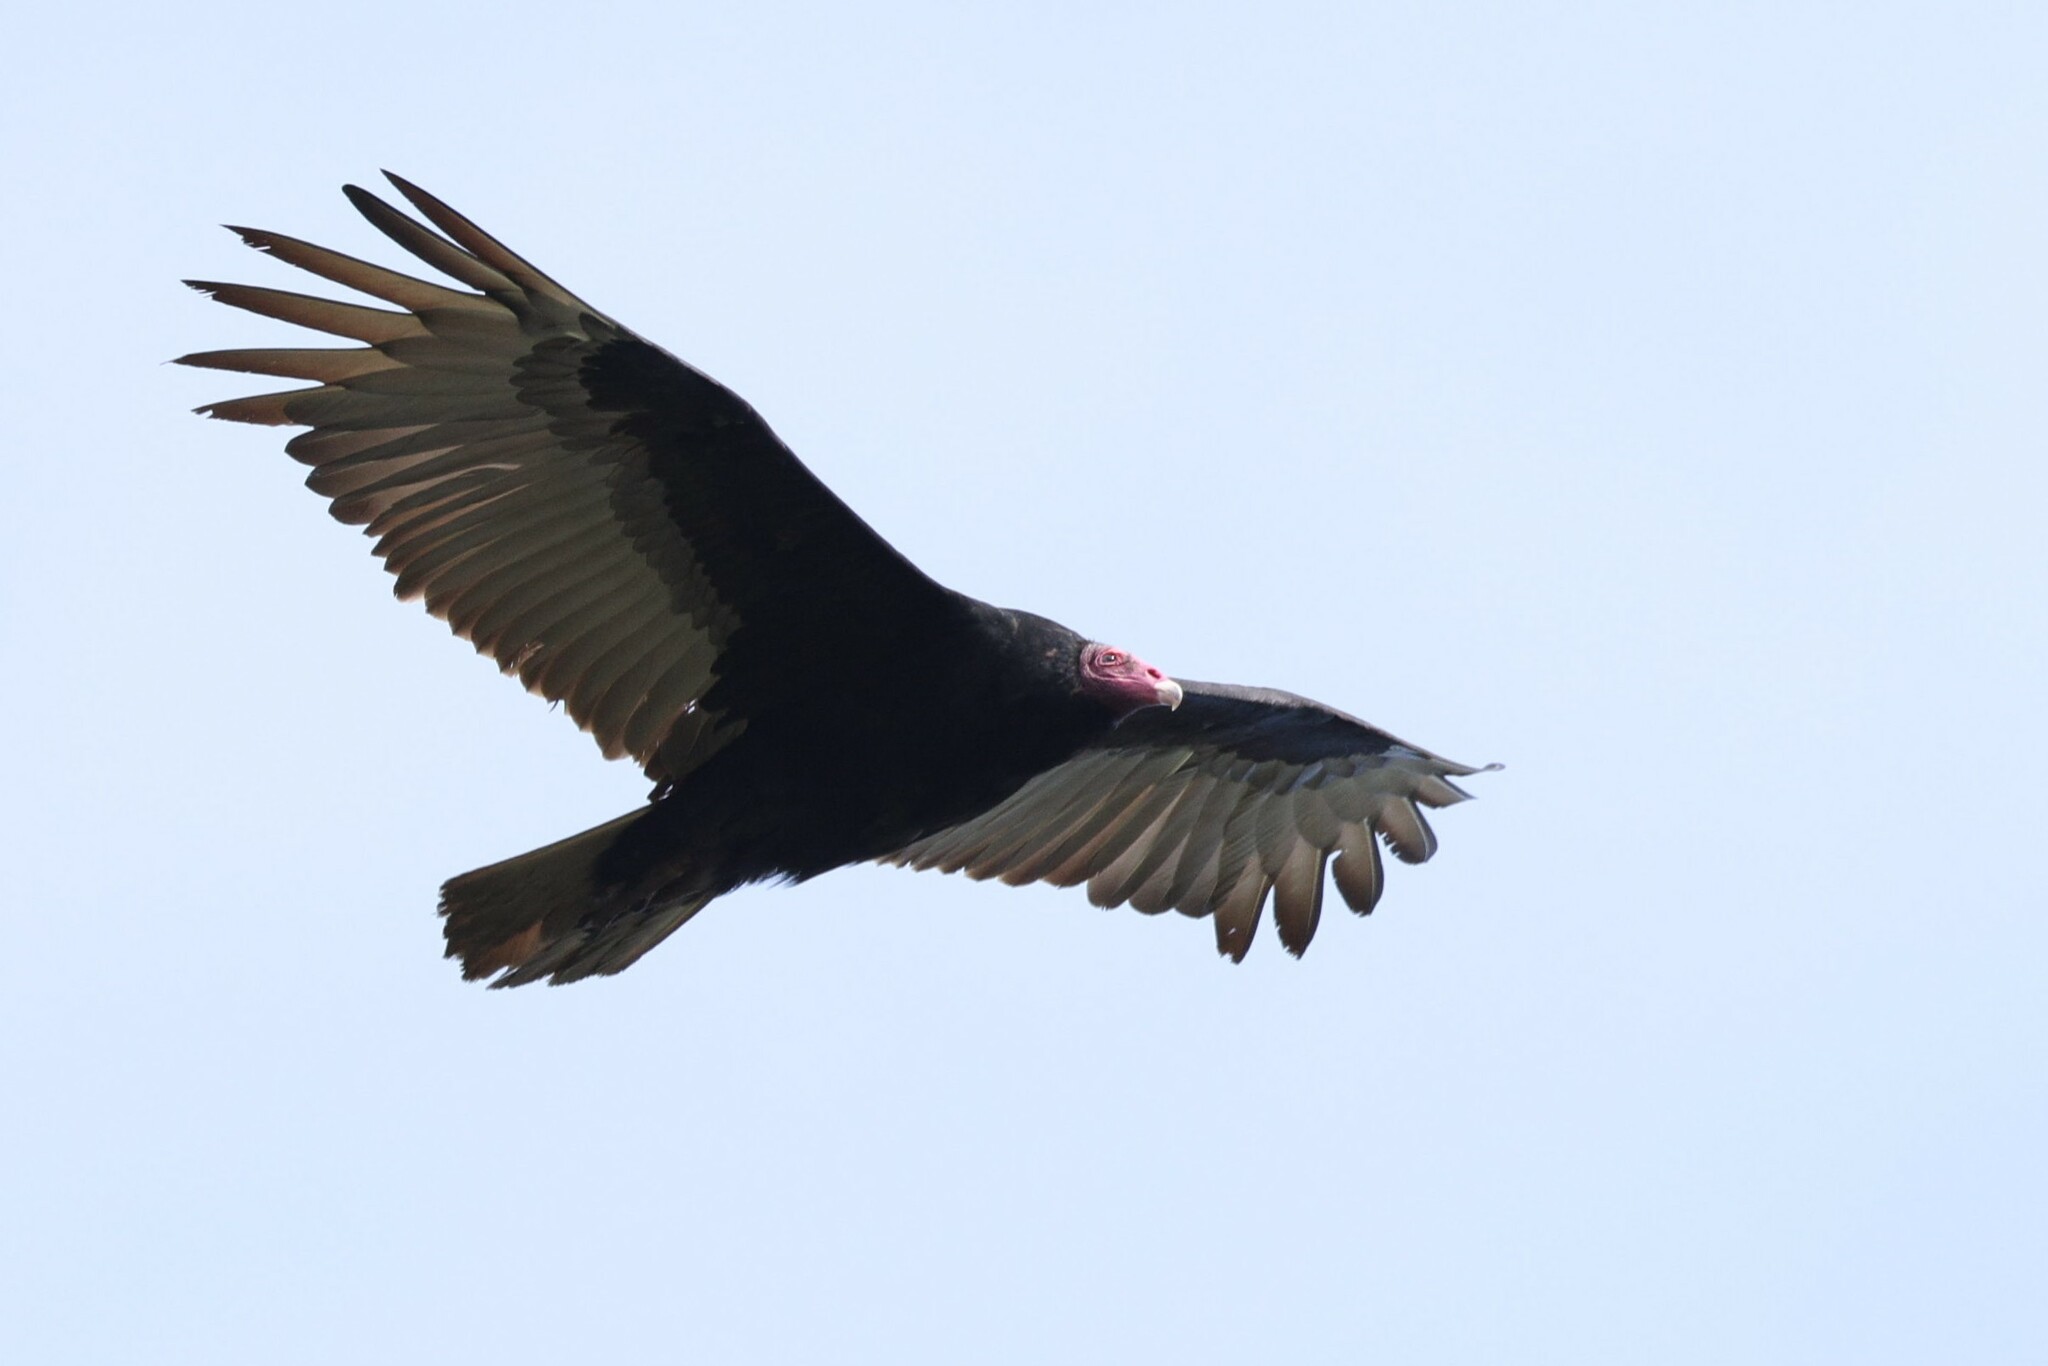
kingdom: Animalia
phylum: Chordata
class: Aves
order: Accipitriformes
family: Cathartidae
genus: Cathartes
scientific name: Cathartes aura
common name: Turkey vulture
